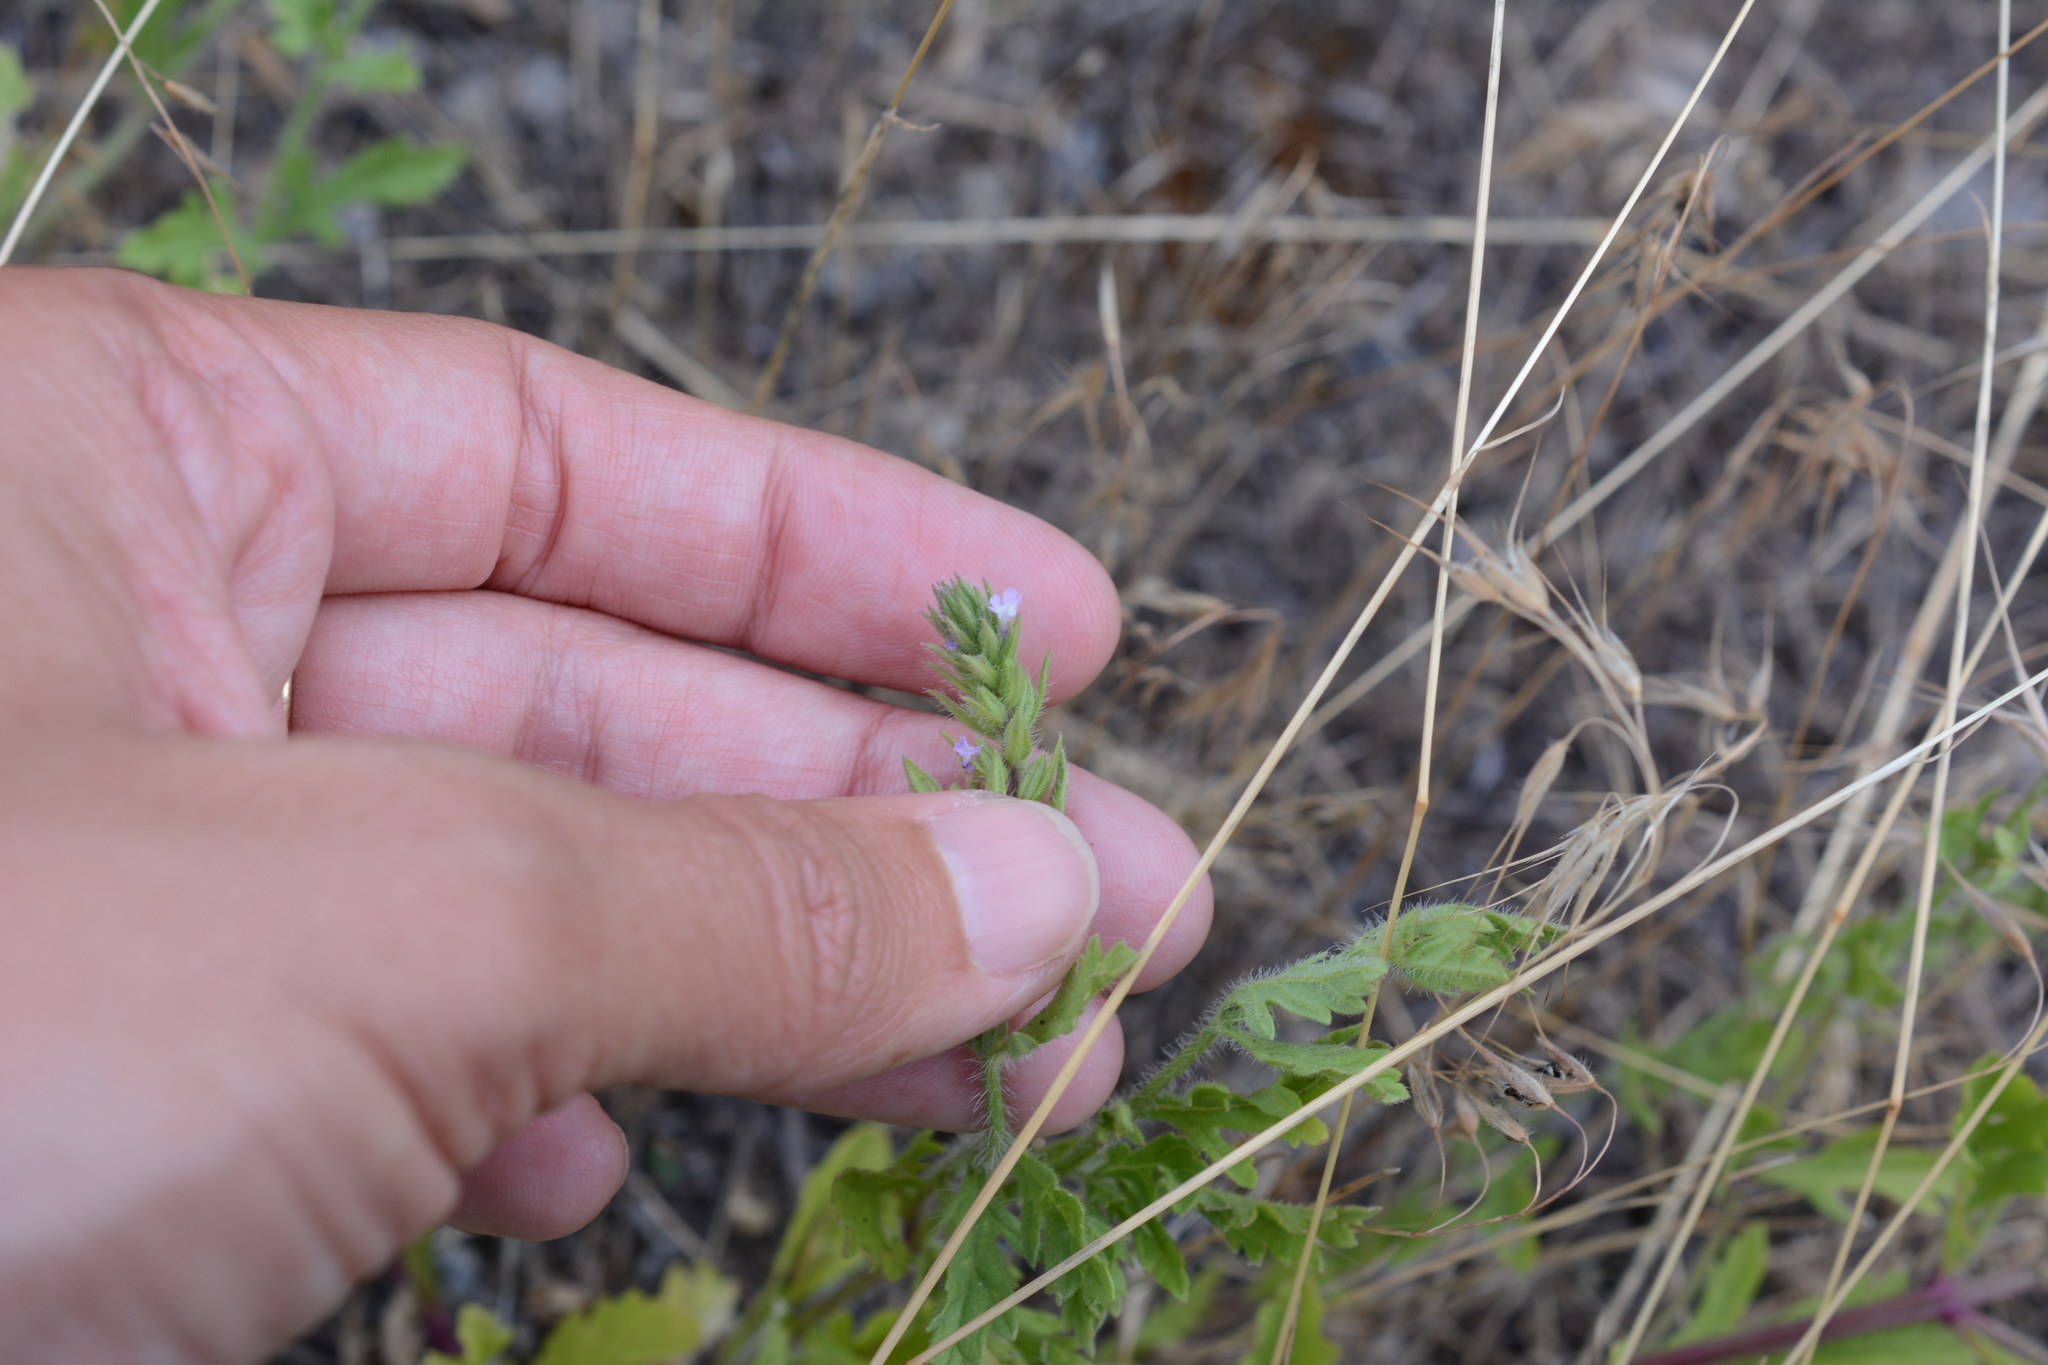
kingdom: Plantae
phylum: Tracheophyta
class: Magnoliopsida
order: Lamiales
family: Verbenaceae
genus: Verbena
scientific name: Verbena bracteata
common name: Bracted vervain
